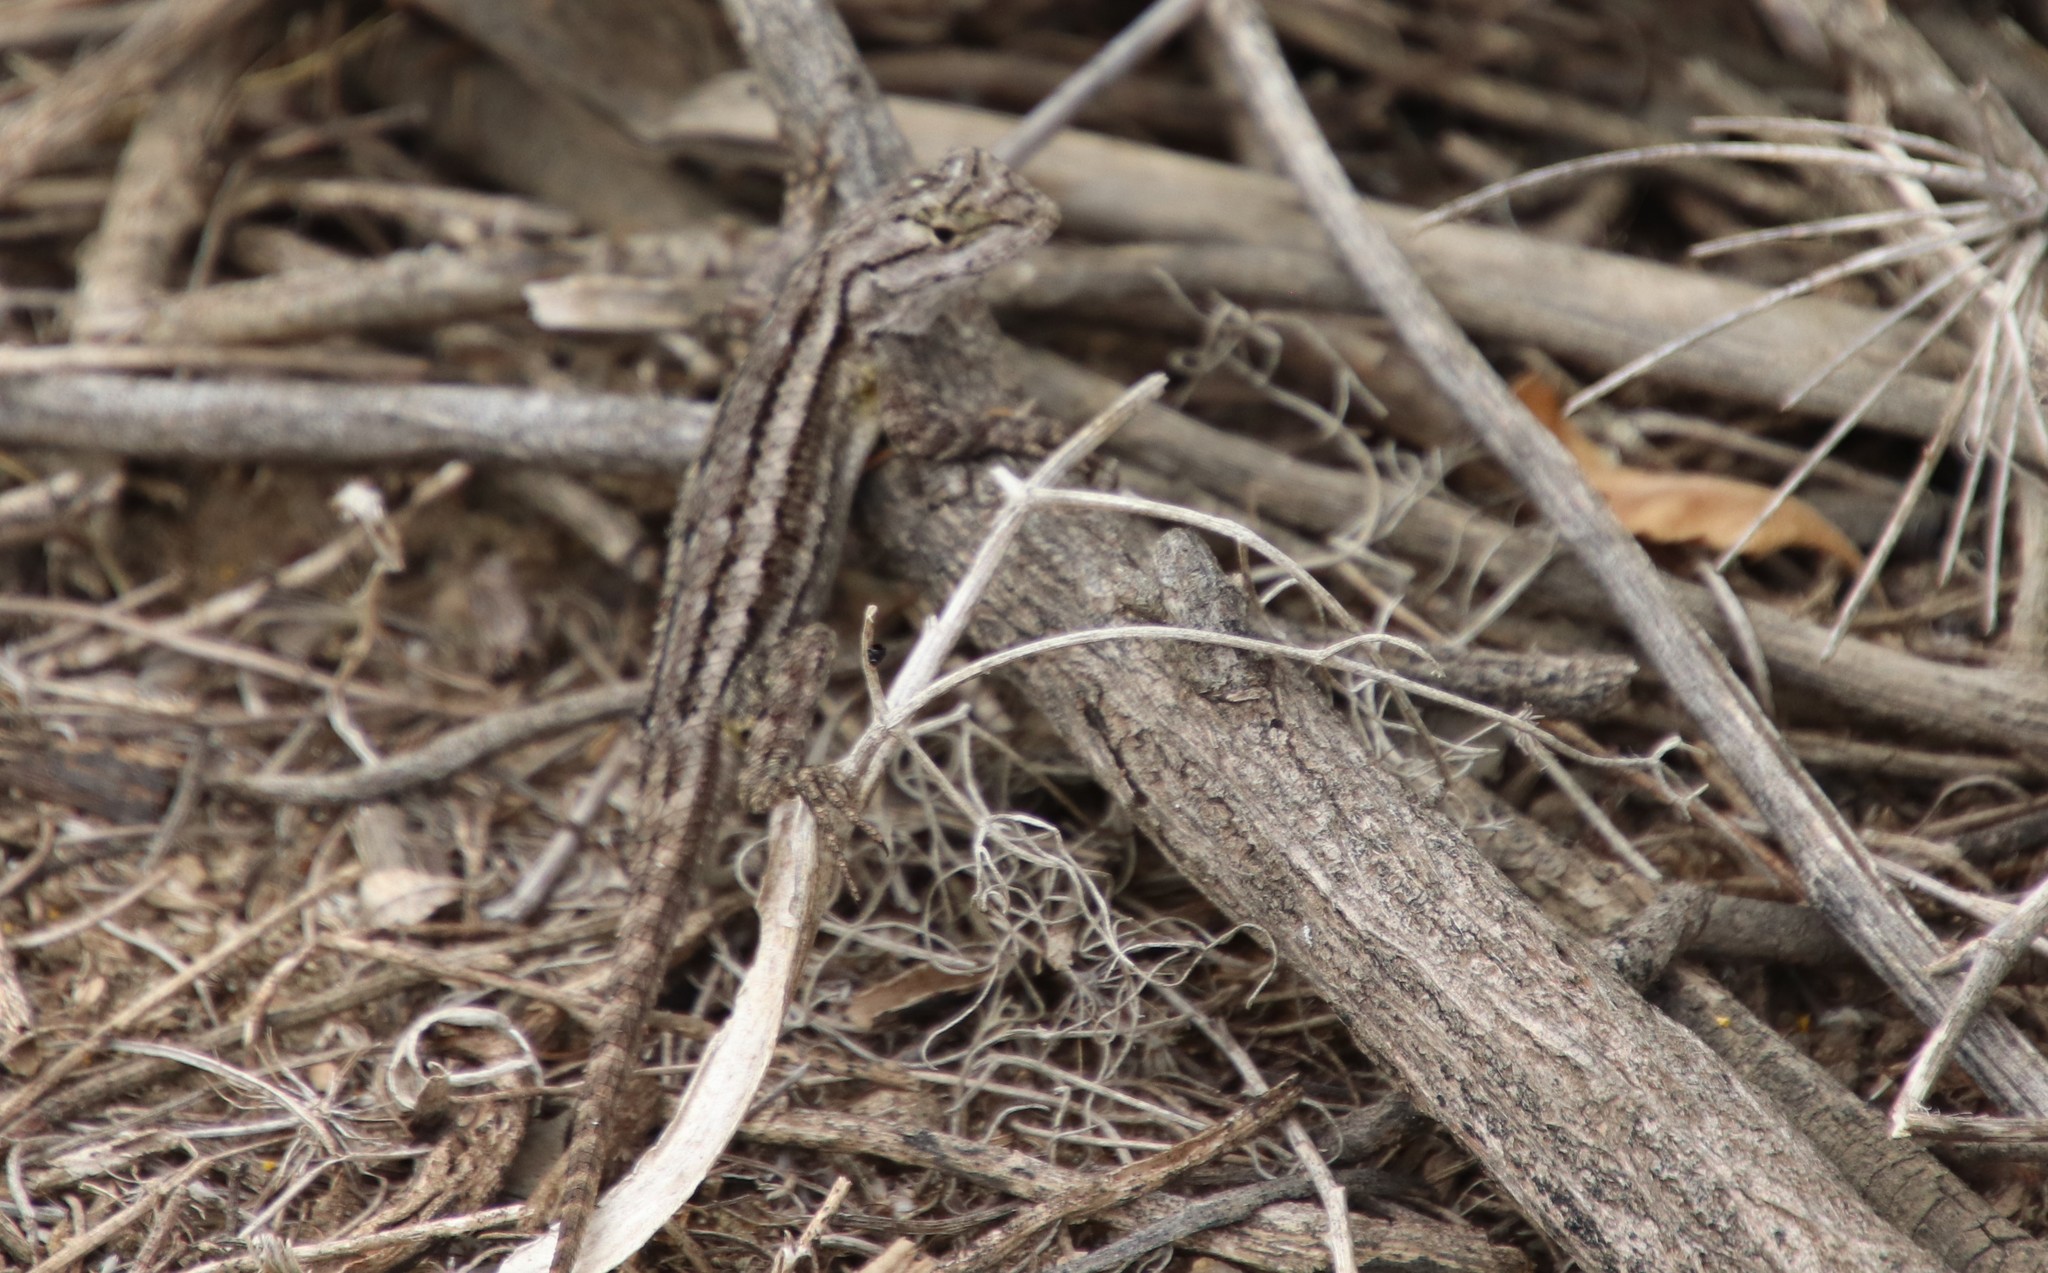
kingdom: Animalia
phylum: Chordata
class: Squamata
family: Phrynosomatidae
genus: Sceloporus
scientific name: Sceloporus occidentalis
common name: Western fence lizard
